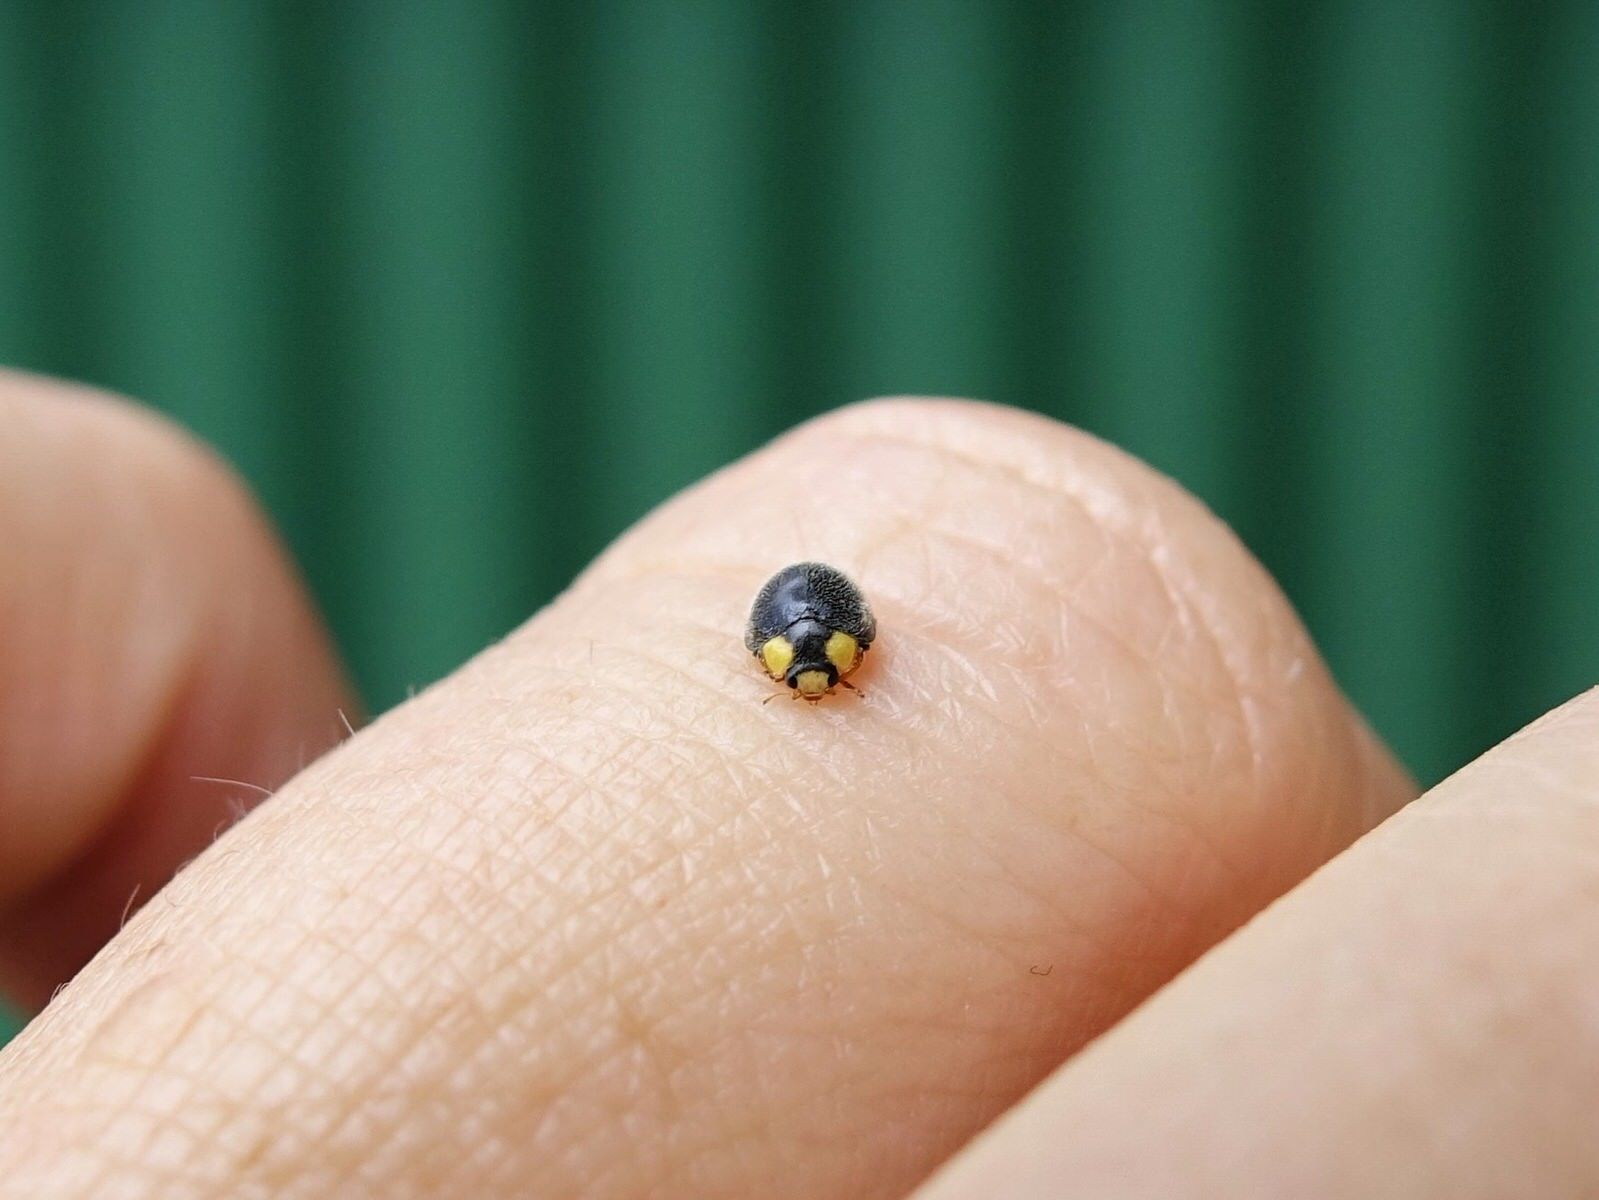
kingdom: Animalia
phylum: Arthropoda
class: Insecta
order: Coleoptera
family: Coccinellidae
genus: Scymnodes
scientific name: Scymnodes lividigaster
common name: Yellowshouldered lady beetle
